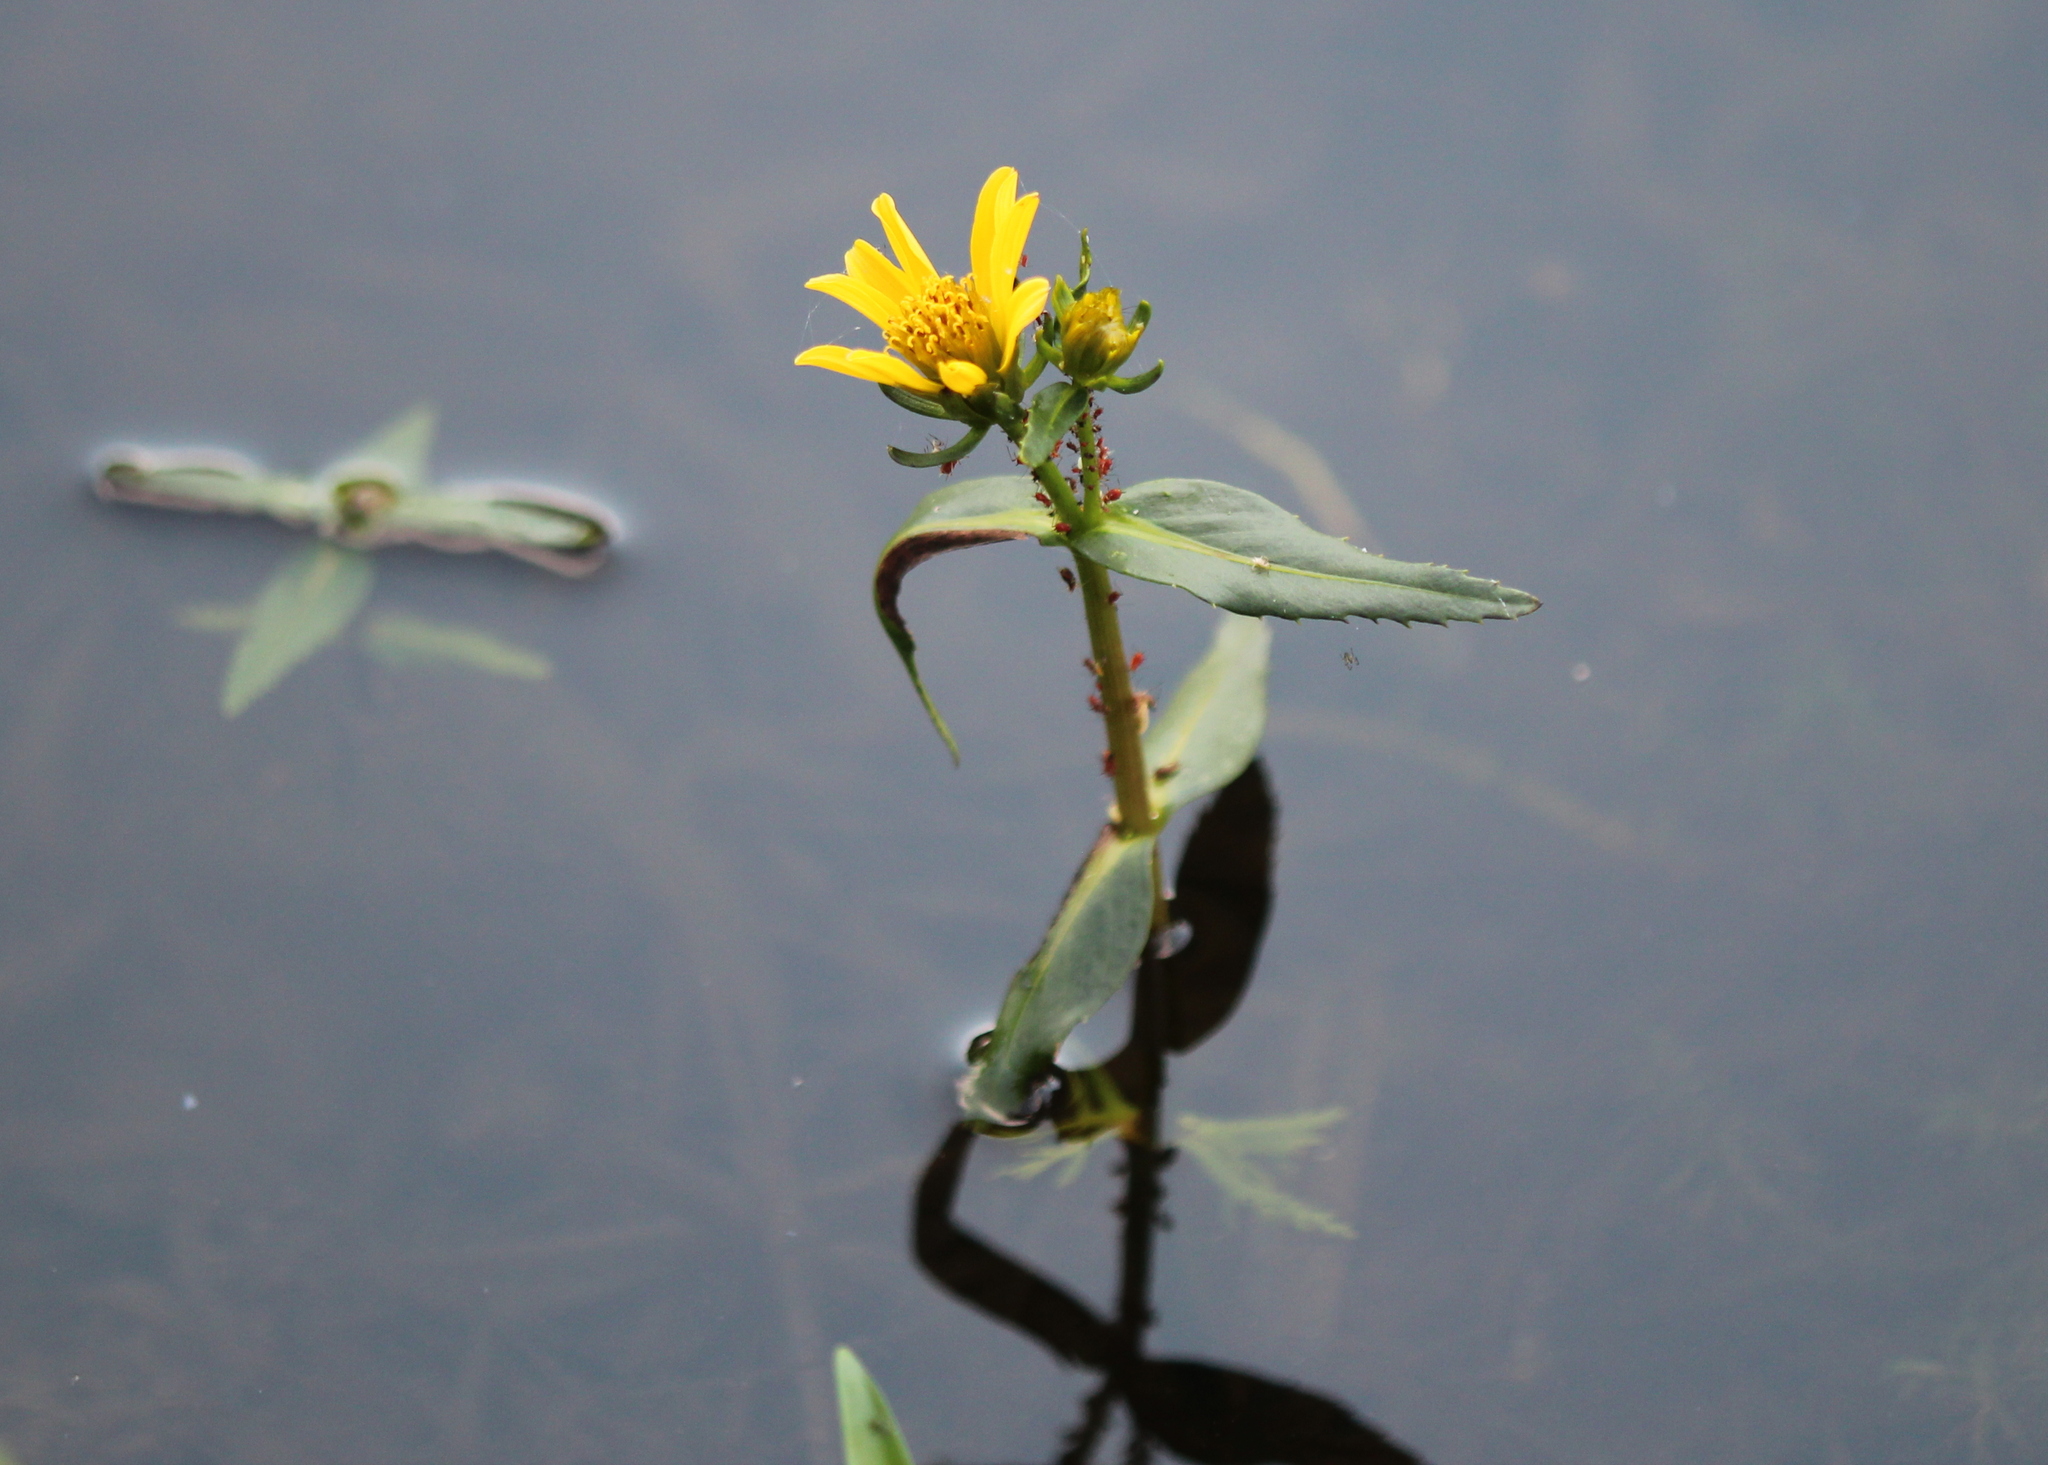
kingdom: Plantae
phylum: Tracheophyta
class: Magnoliopsida
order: Asterales
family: Asteraceae
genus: Bidens
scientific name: Bidens beckii
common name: Beck's beggarticks
